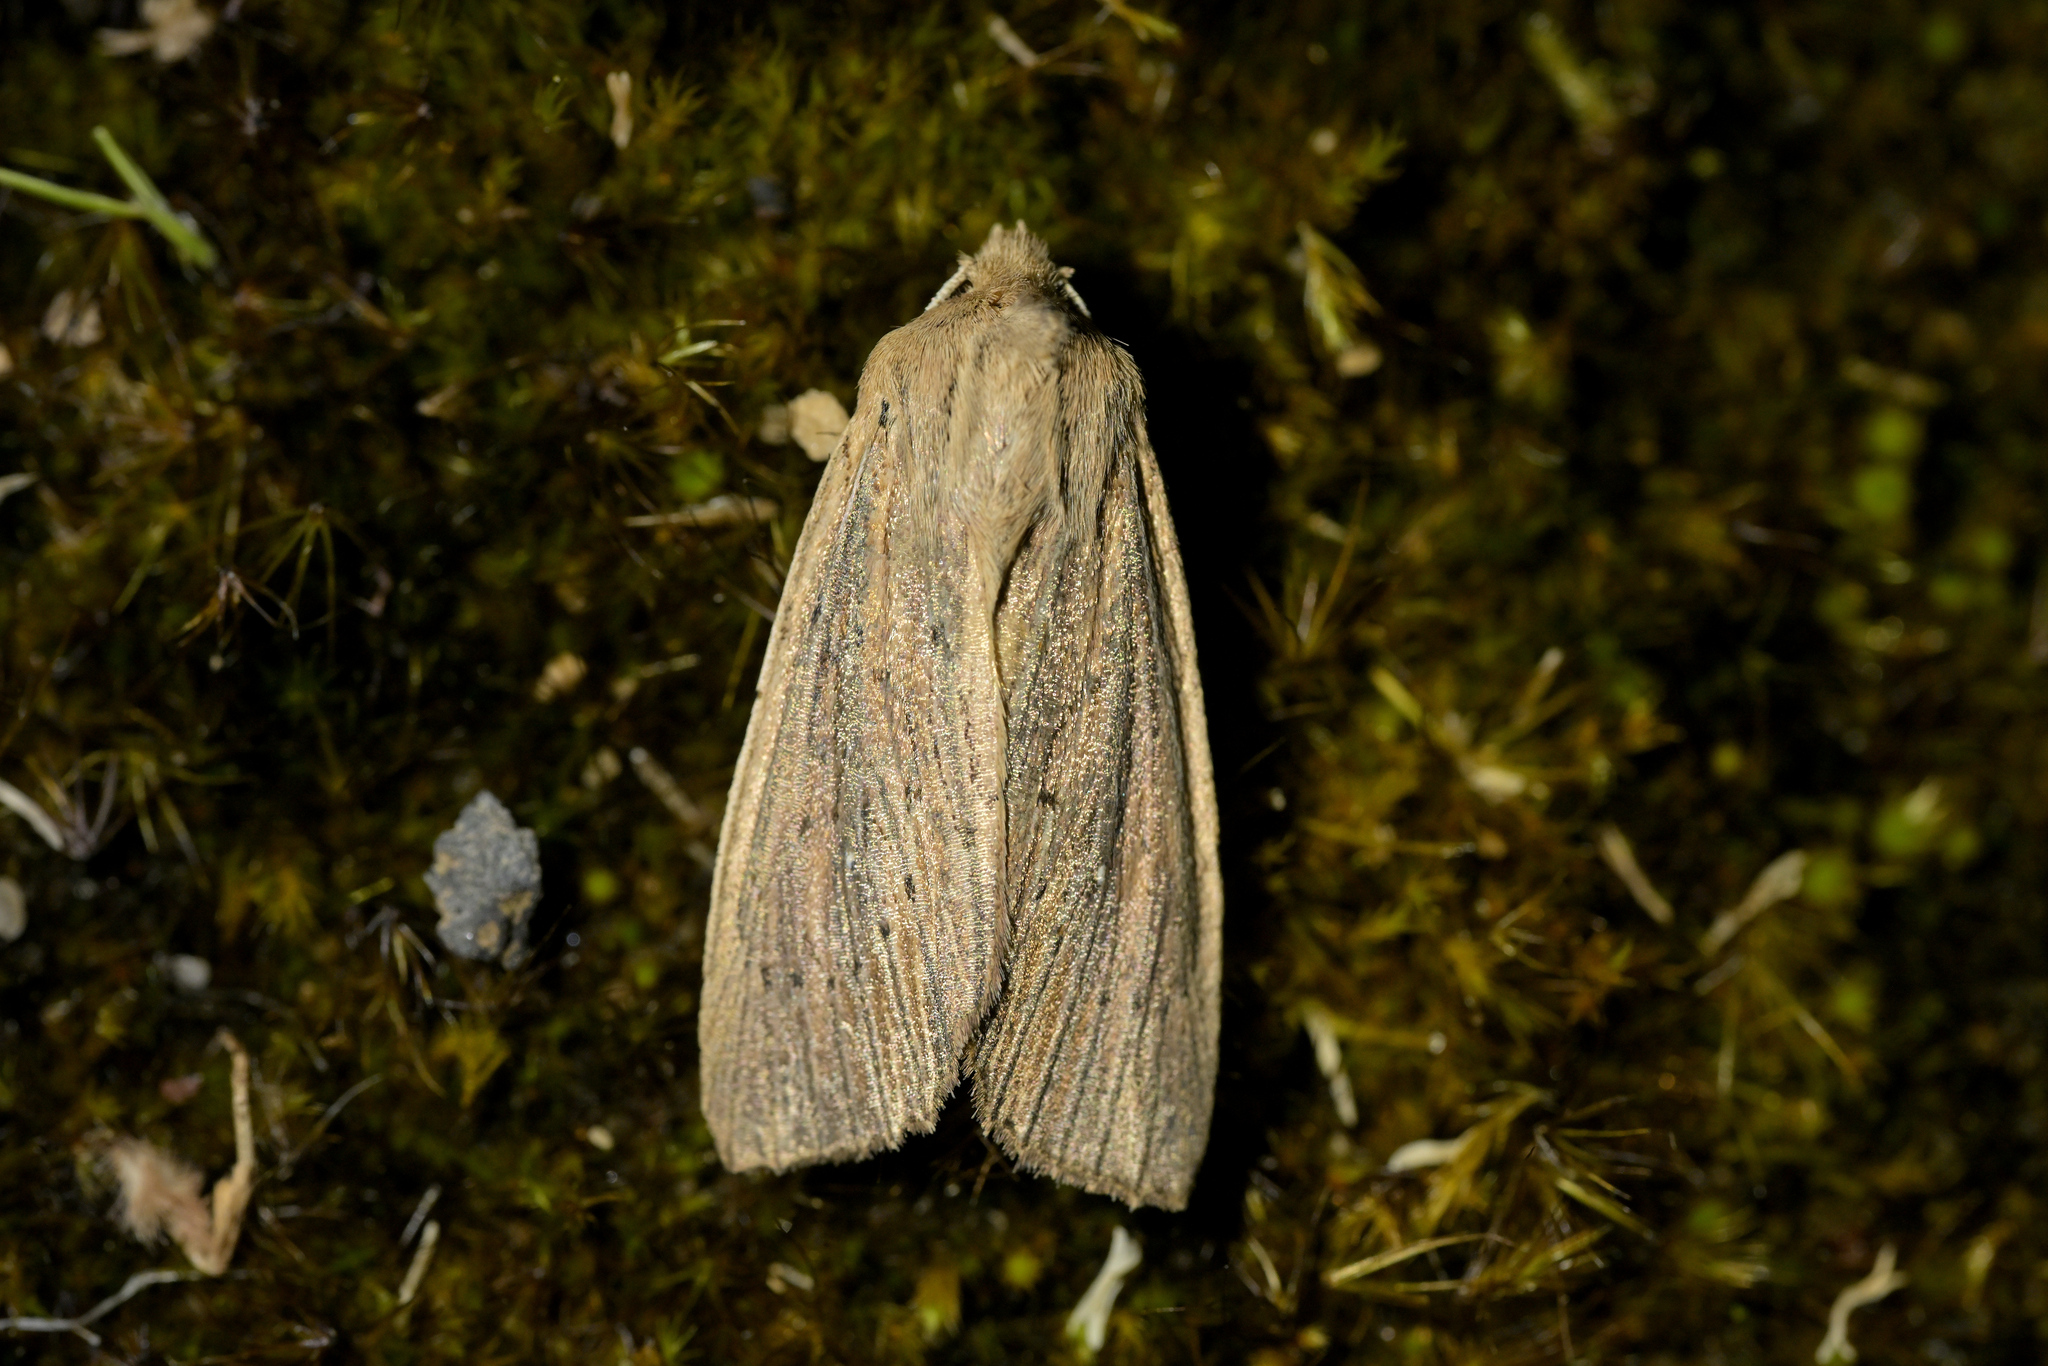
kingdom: Animalia
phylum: Arthropoda
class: Insecta
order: Lepidoptera
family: Noctuidae
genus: Ichneutica
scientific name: Ichneutica arotis
